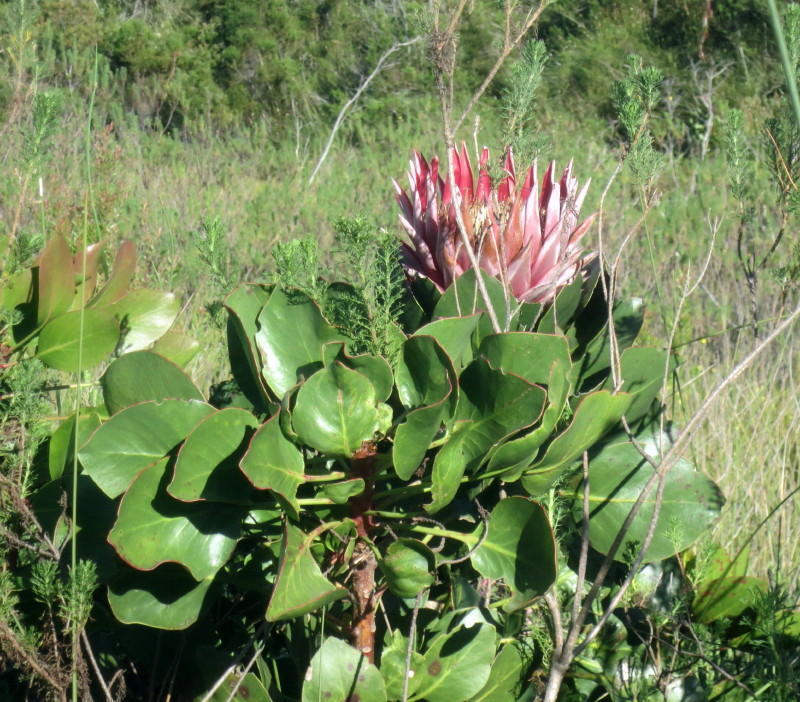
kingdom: Plantae
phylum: Tracheophyta
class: Magnoliopsida
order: Proteales
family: Proteaceae
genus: Protea
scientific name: Protea cynaroides
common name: King protea
